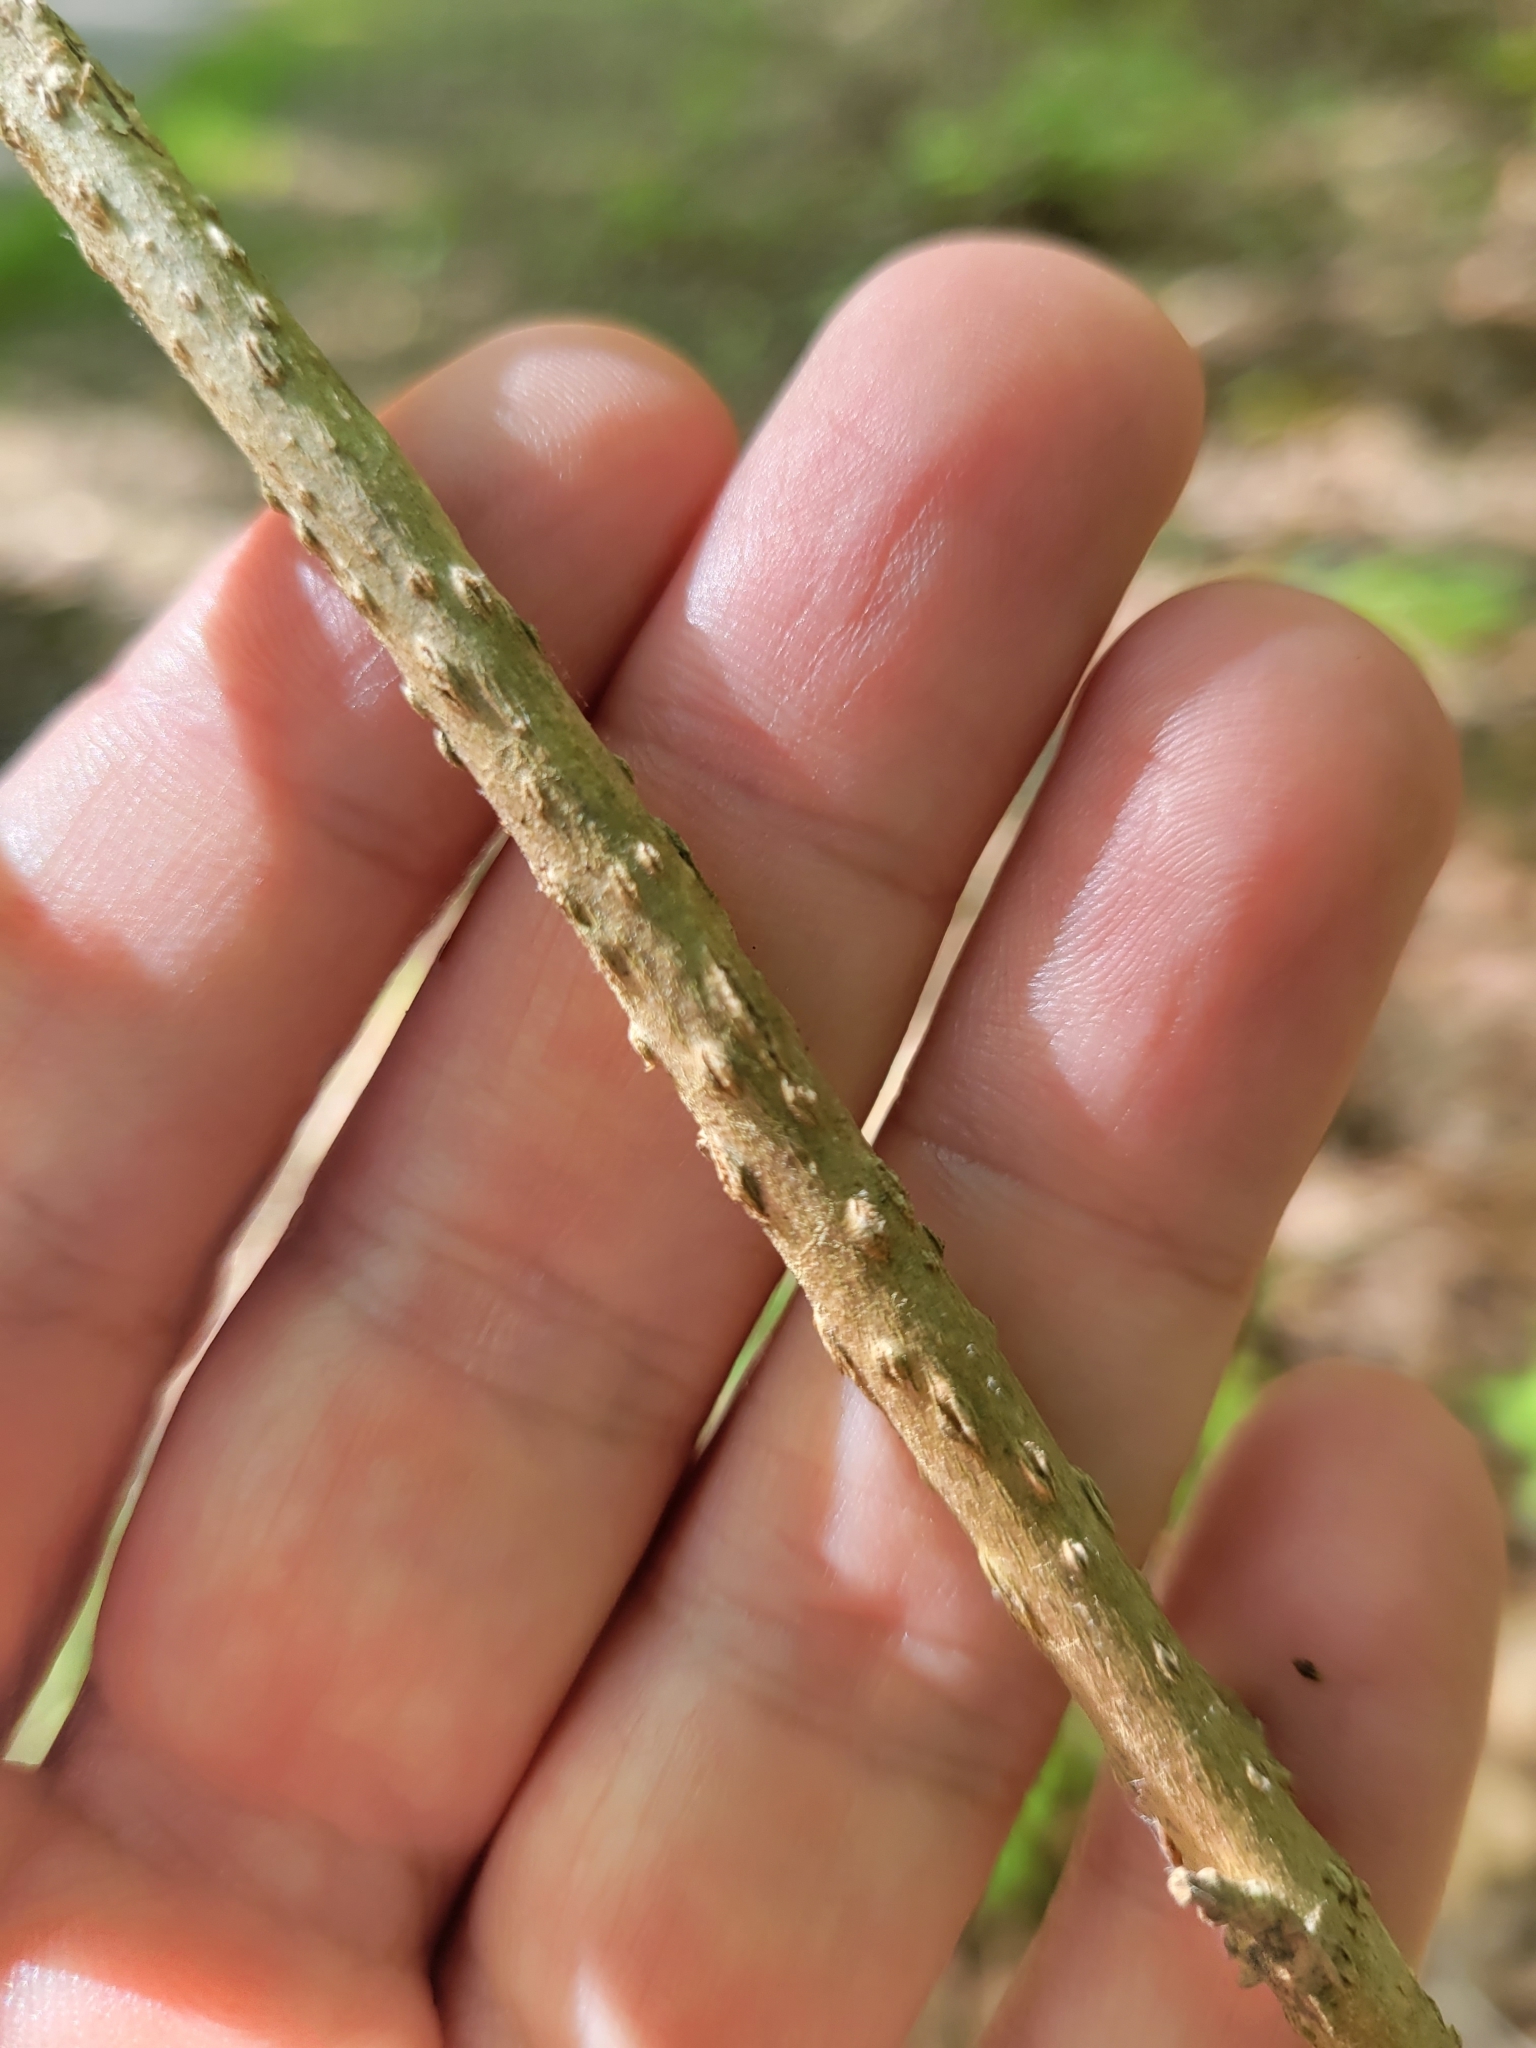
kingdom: Plantae
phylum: Tracheophyta
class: Magnoliopsida
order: Lamiales
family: Lamiaceae
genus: Callicarpa
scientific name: Callicarpa americana
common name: American beautyberry
